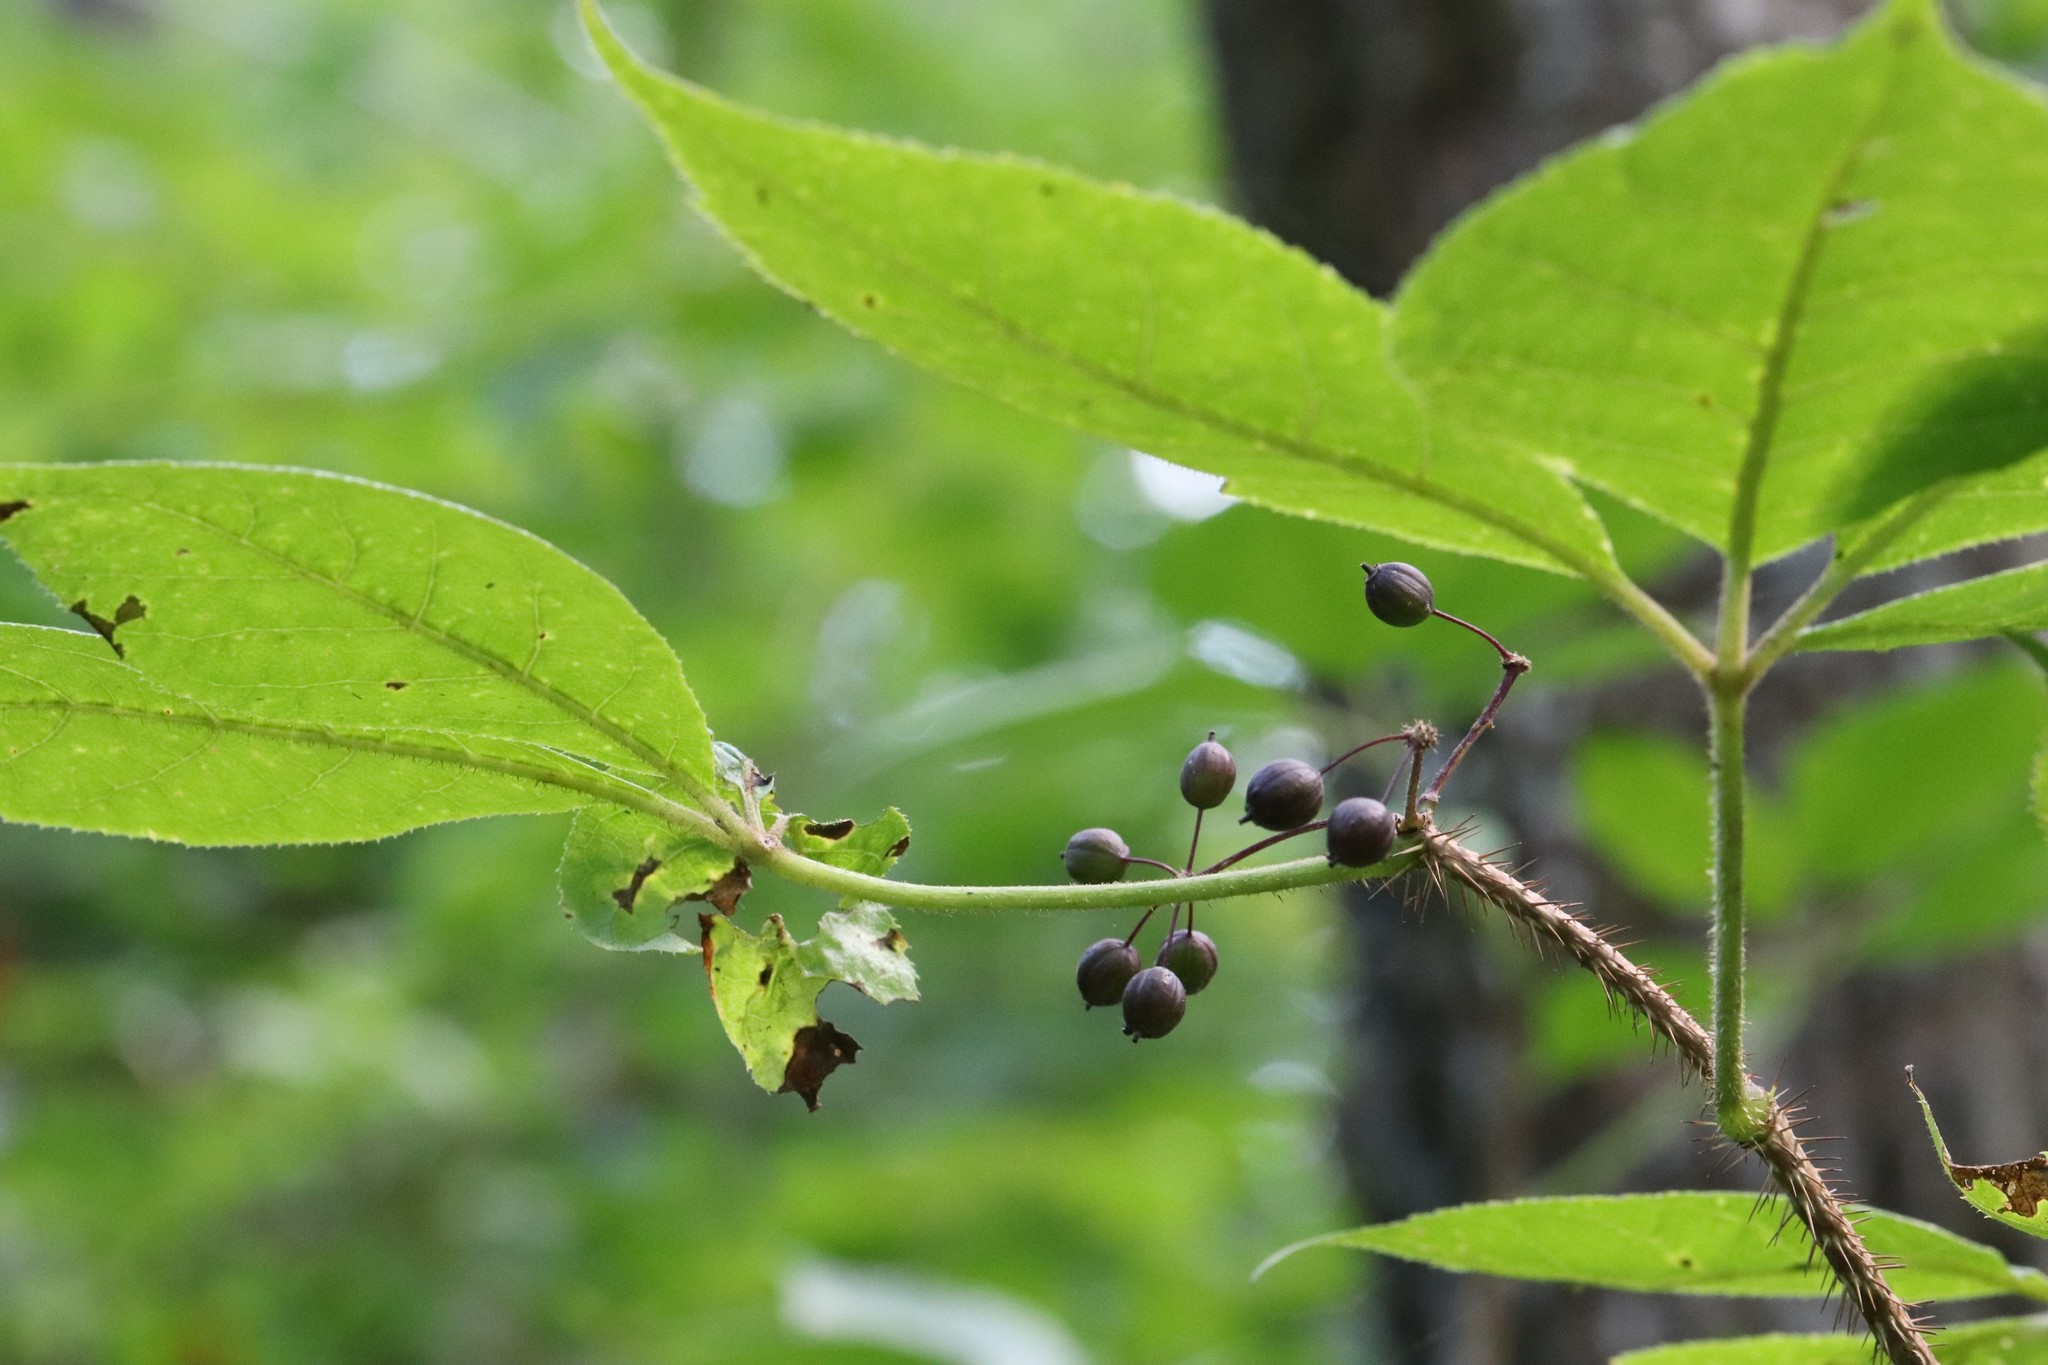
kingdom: Plantae
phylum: Tracheophyta
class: Magnoliopsida
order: Apiales
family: Araliaceae
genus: Eleutherococcus
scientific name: Eleutherococcus senticosus
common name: Siberian-ginseng
